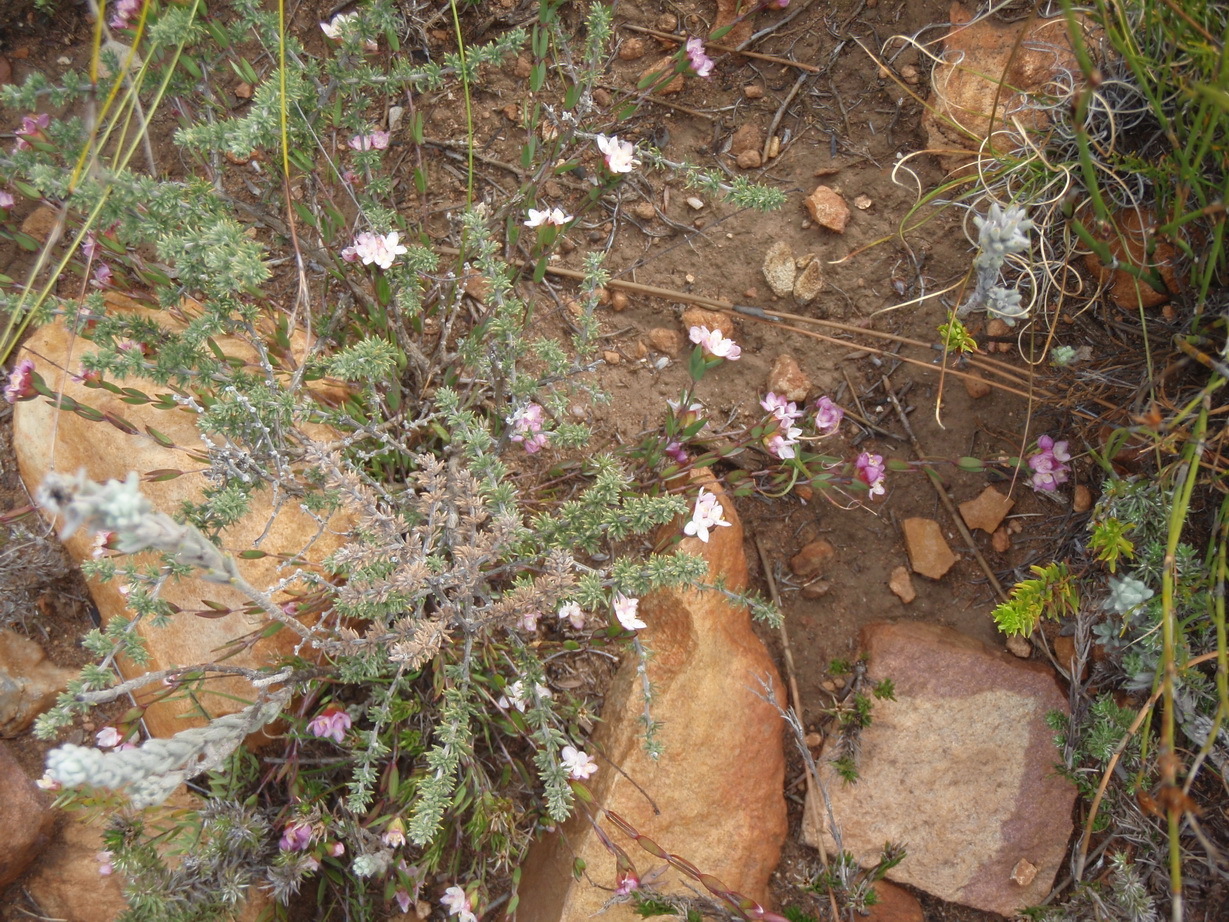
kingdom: Plantae
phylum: Tracheophyta
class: Magnoliopsida
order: Malvales
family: Thymelaeaceae
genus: Lachnaea
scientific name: Lachnaea burchellii
